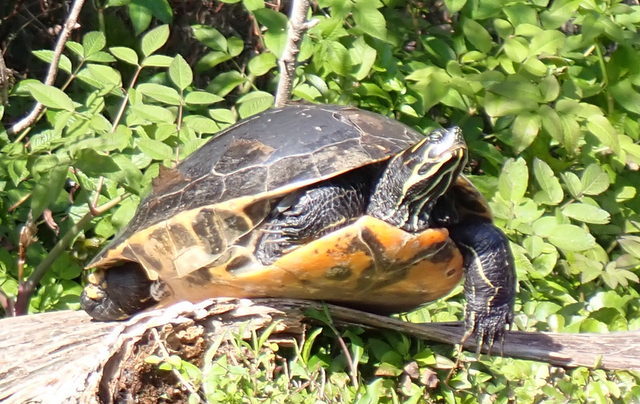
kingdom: Animalia
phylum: Chordata
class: Testudines
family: Emydidae
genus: Pseudemys
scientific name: Pseudemys concinna
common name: Eastern river cooter
